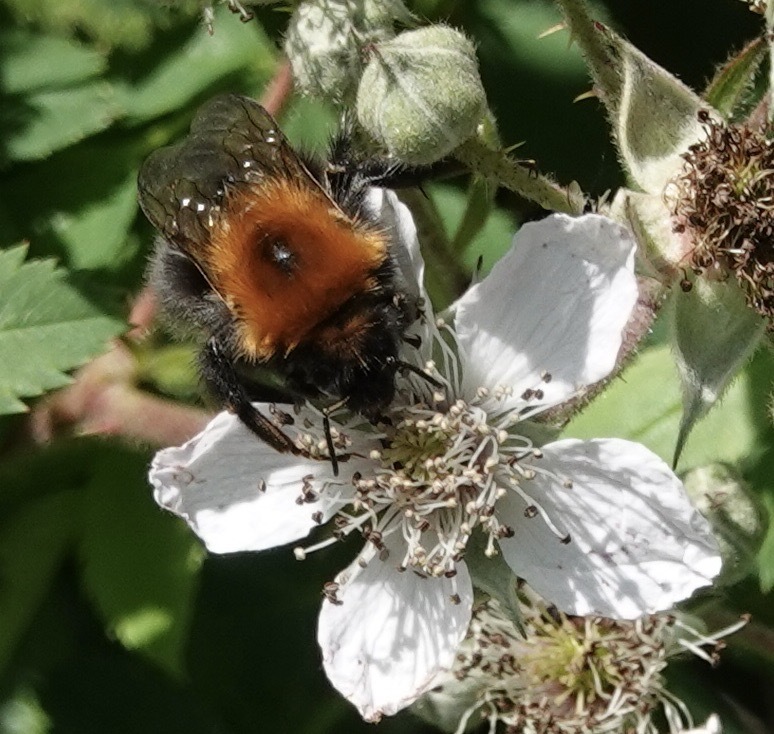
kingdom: Animalia
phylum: Arthropoda
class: Insecta
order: Hymenoptera
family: Apidae
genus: Bombus
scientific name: Bombus hypnorum
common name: New garden bumblebee
